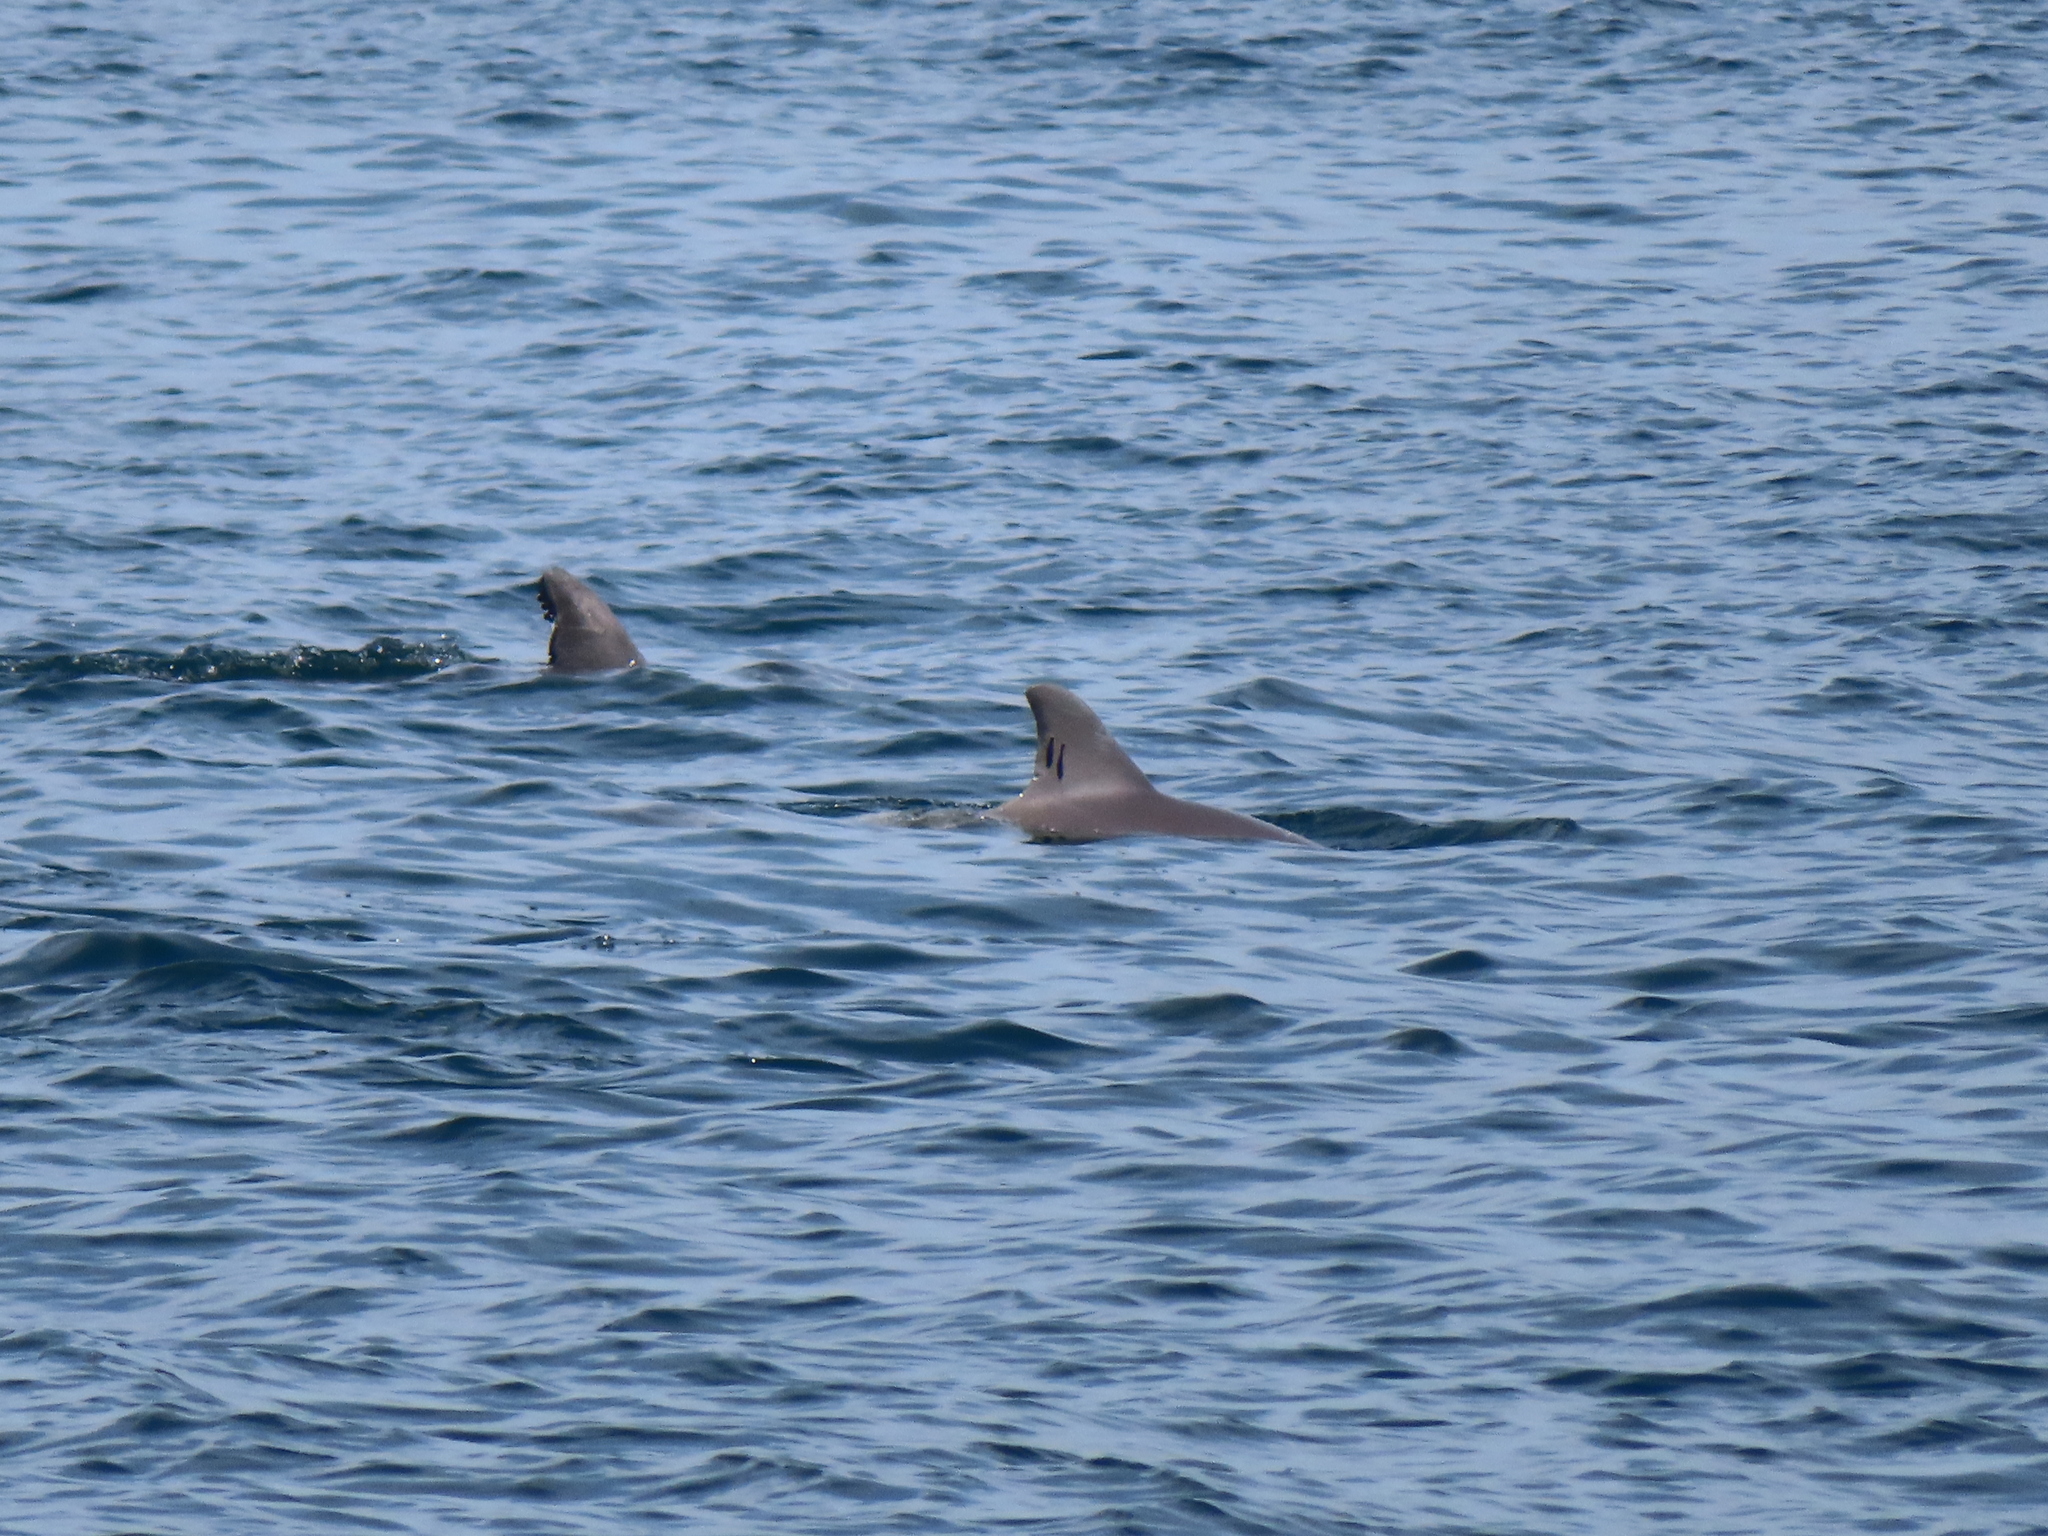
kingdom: Animalia
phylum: Chordata
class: Mammalia
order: Cetacea
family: Delphinidae
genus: Tursiops
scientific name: Tursiops truncatus
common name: Bottlenose dolphin
